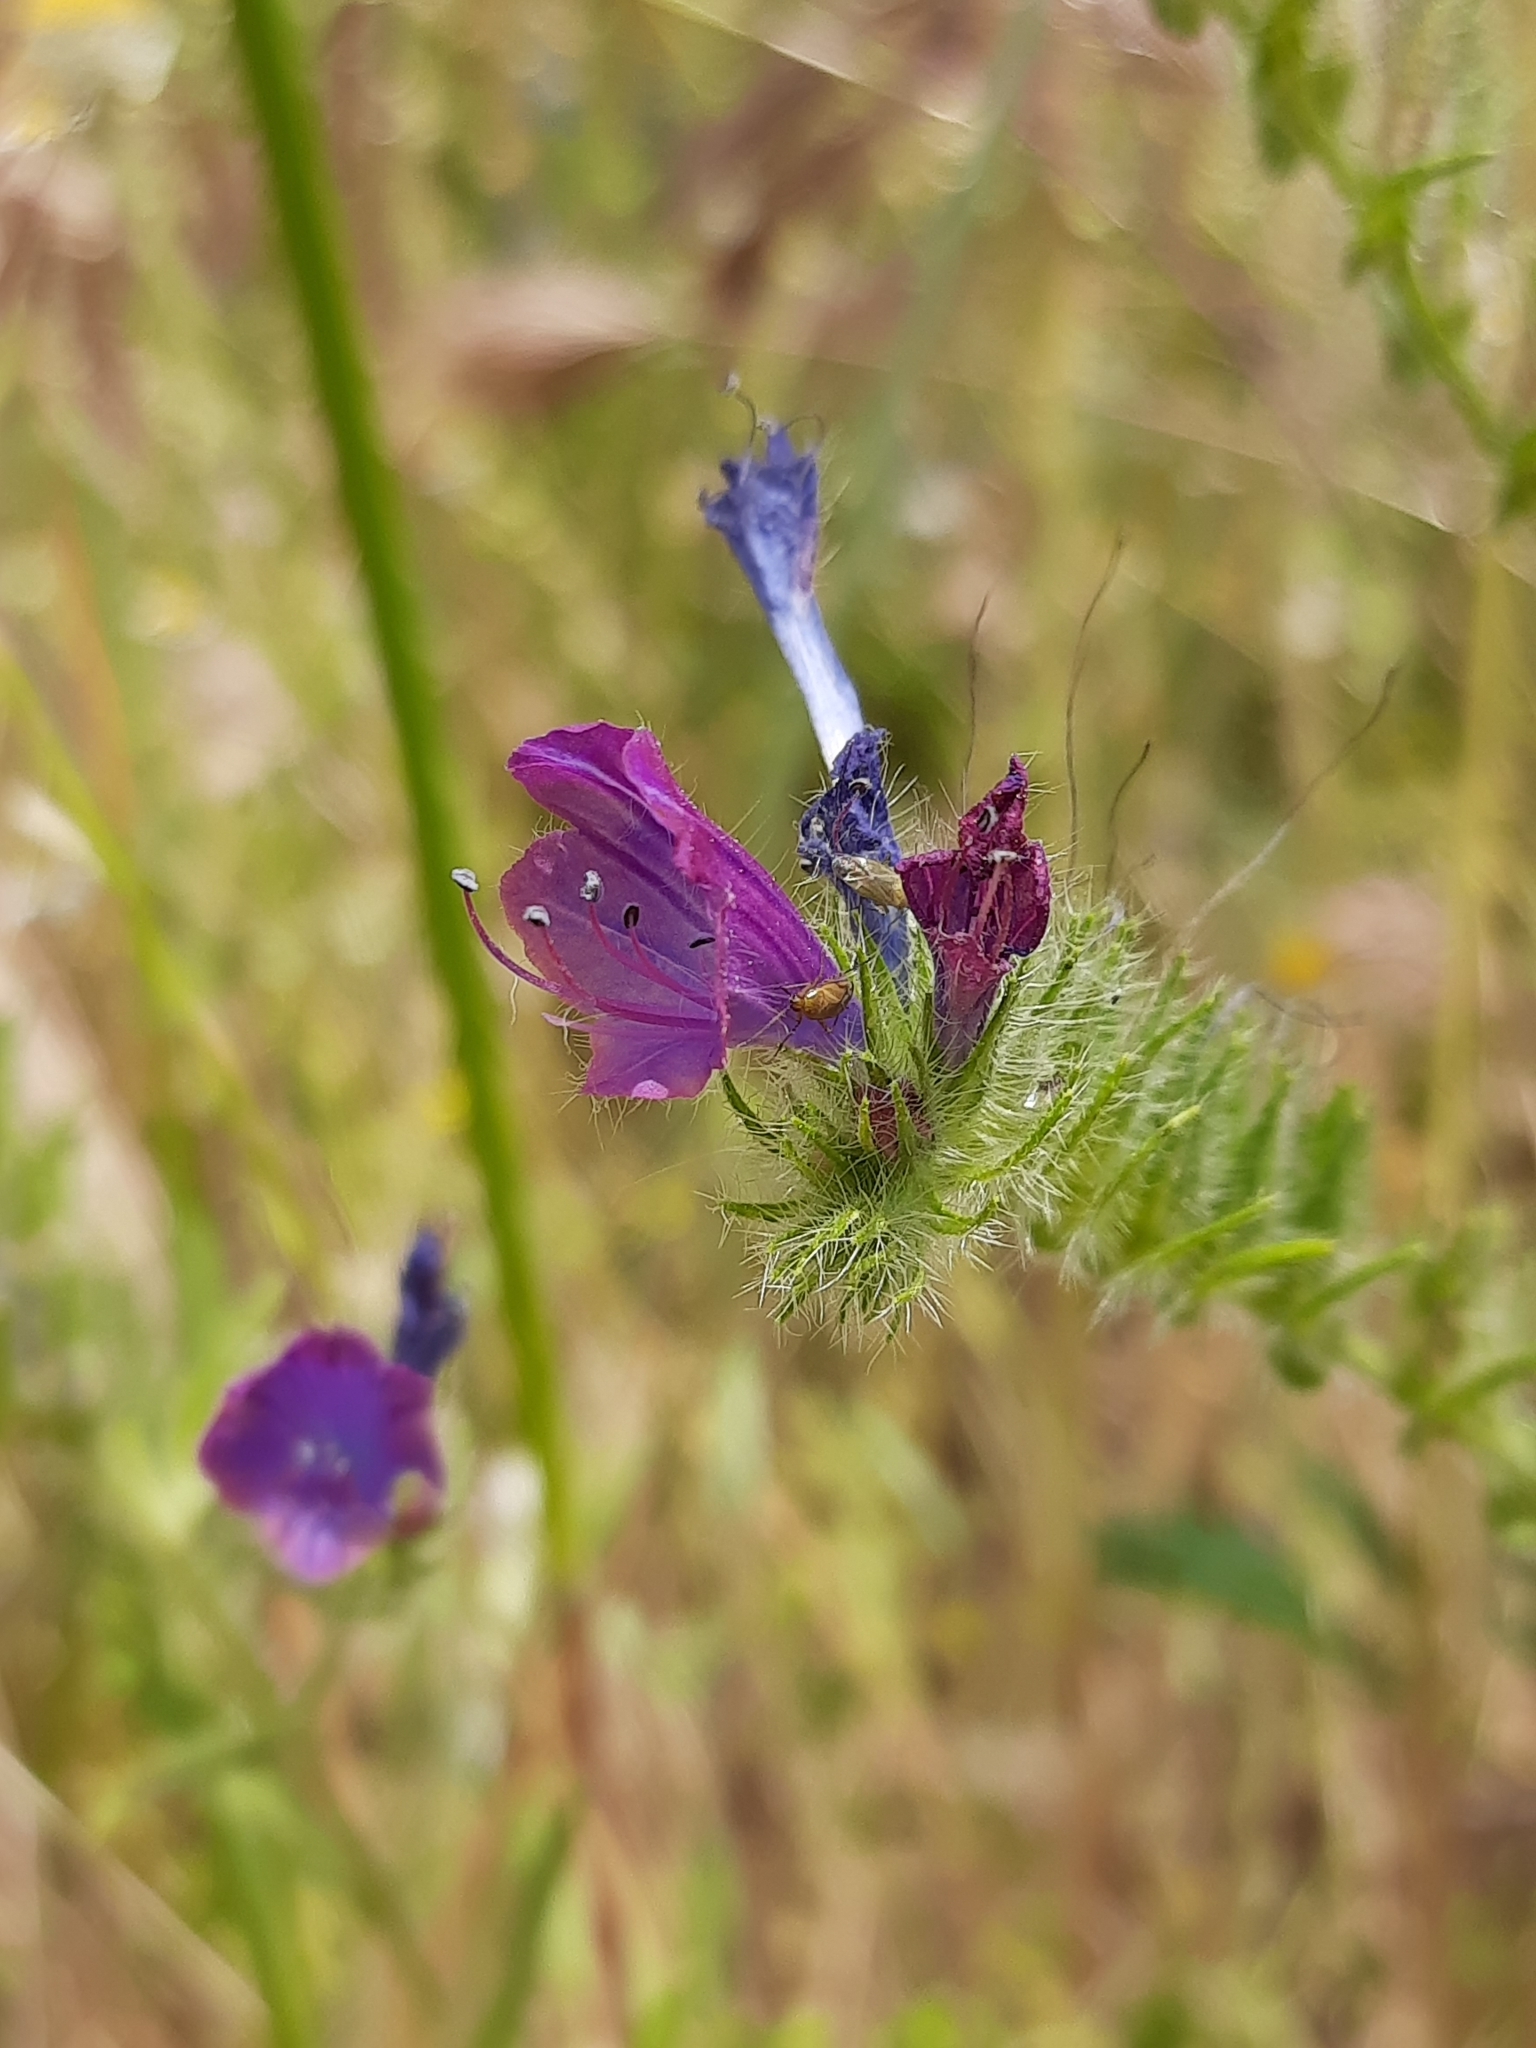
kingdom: Plantae
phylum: Tracheophyta
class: Magnoliopsida
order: Boraginales
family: Boraginaceae
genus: Echium
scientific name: Echium plantagineum
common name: Purple viper's-bugloss
